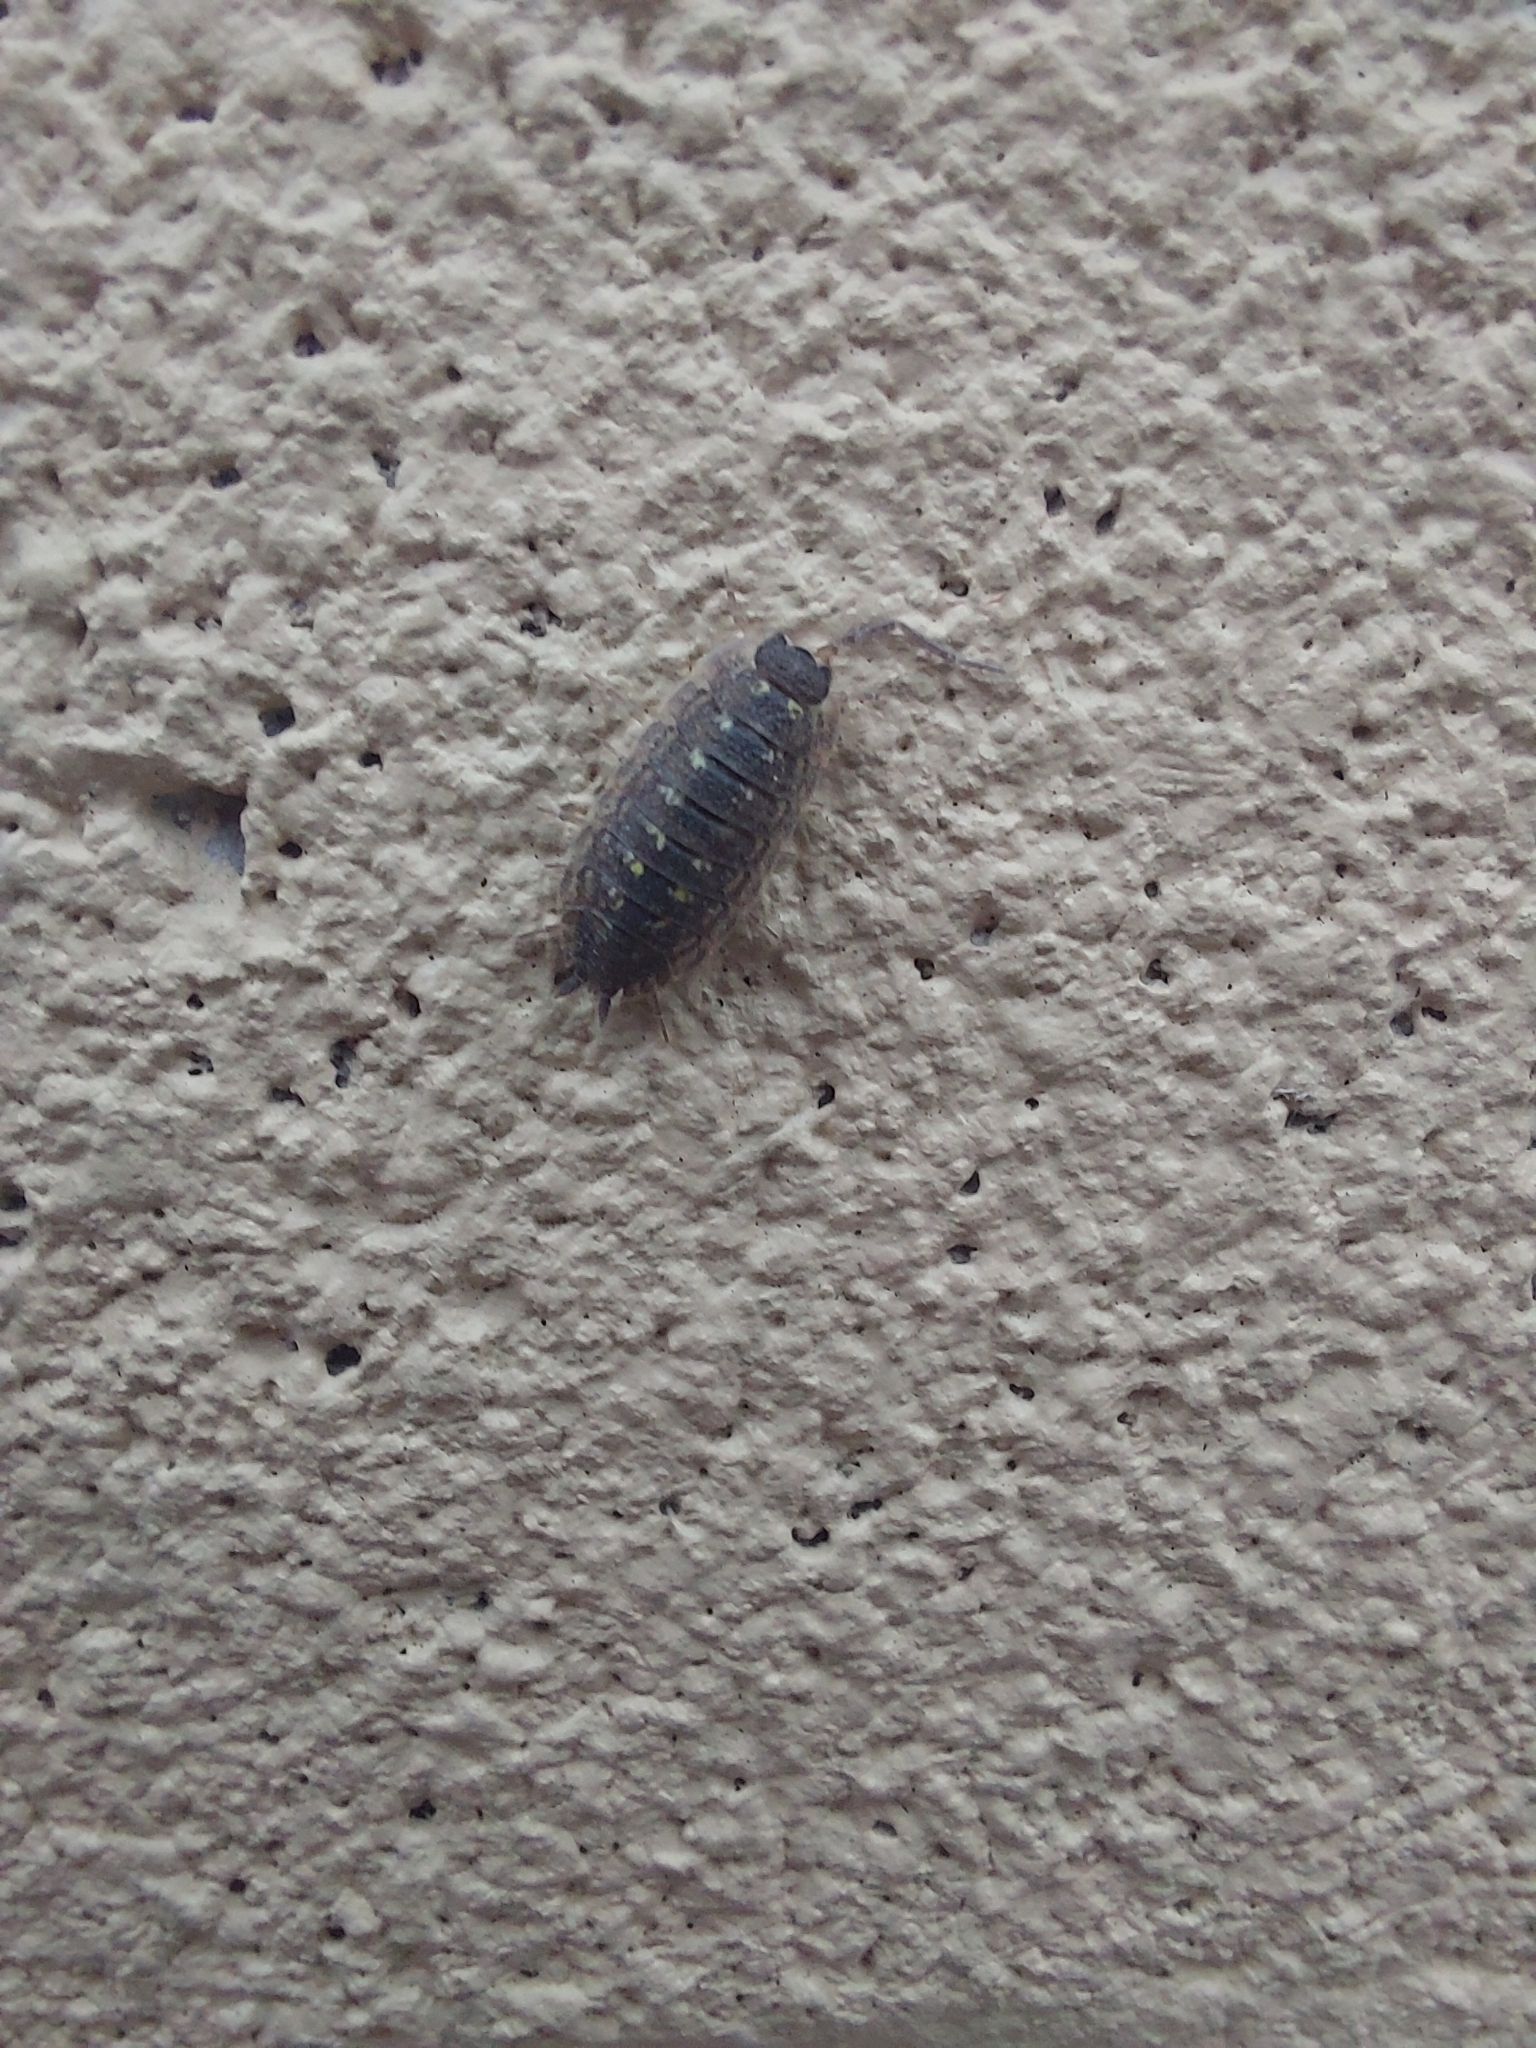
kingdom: Animalia
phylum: Arthropoda
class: Malacostraca
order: Isopoda
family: Porcellionidae
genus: Porcellio
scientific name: Porcellio spinicornis
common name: Painted woodlouse
